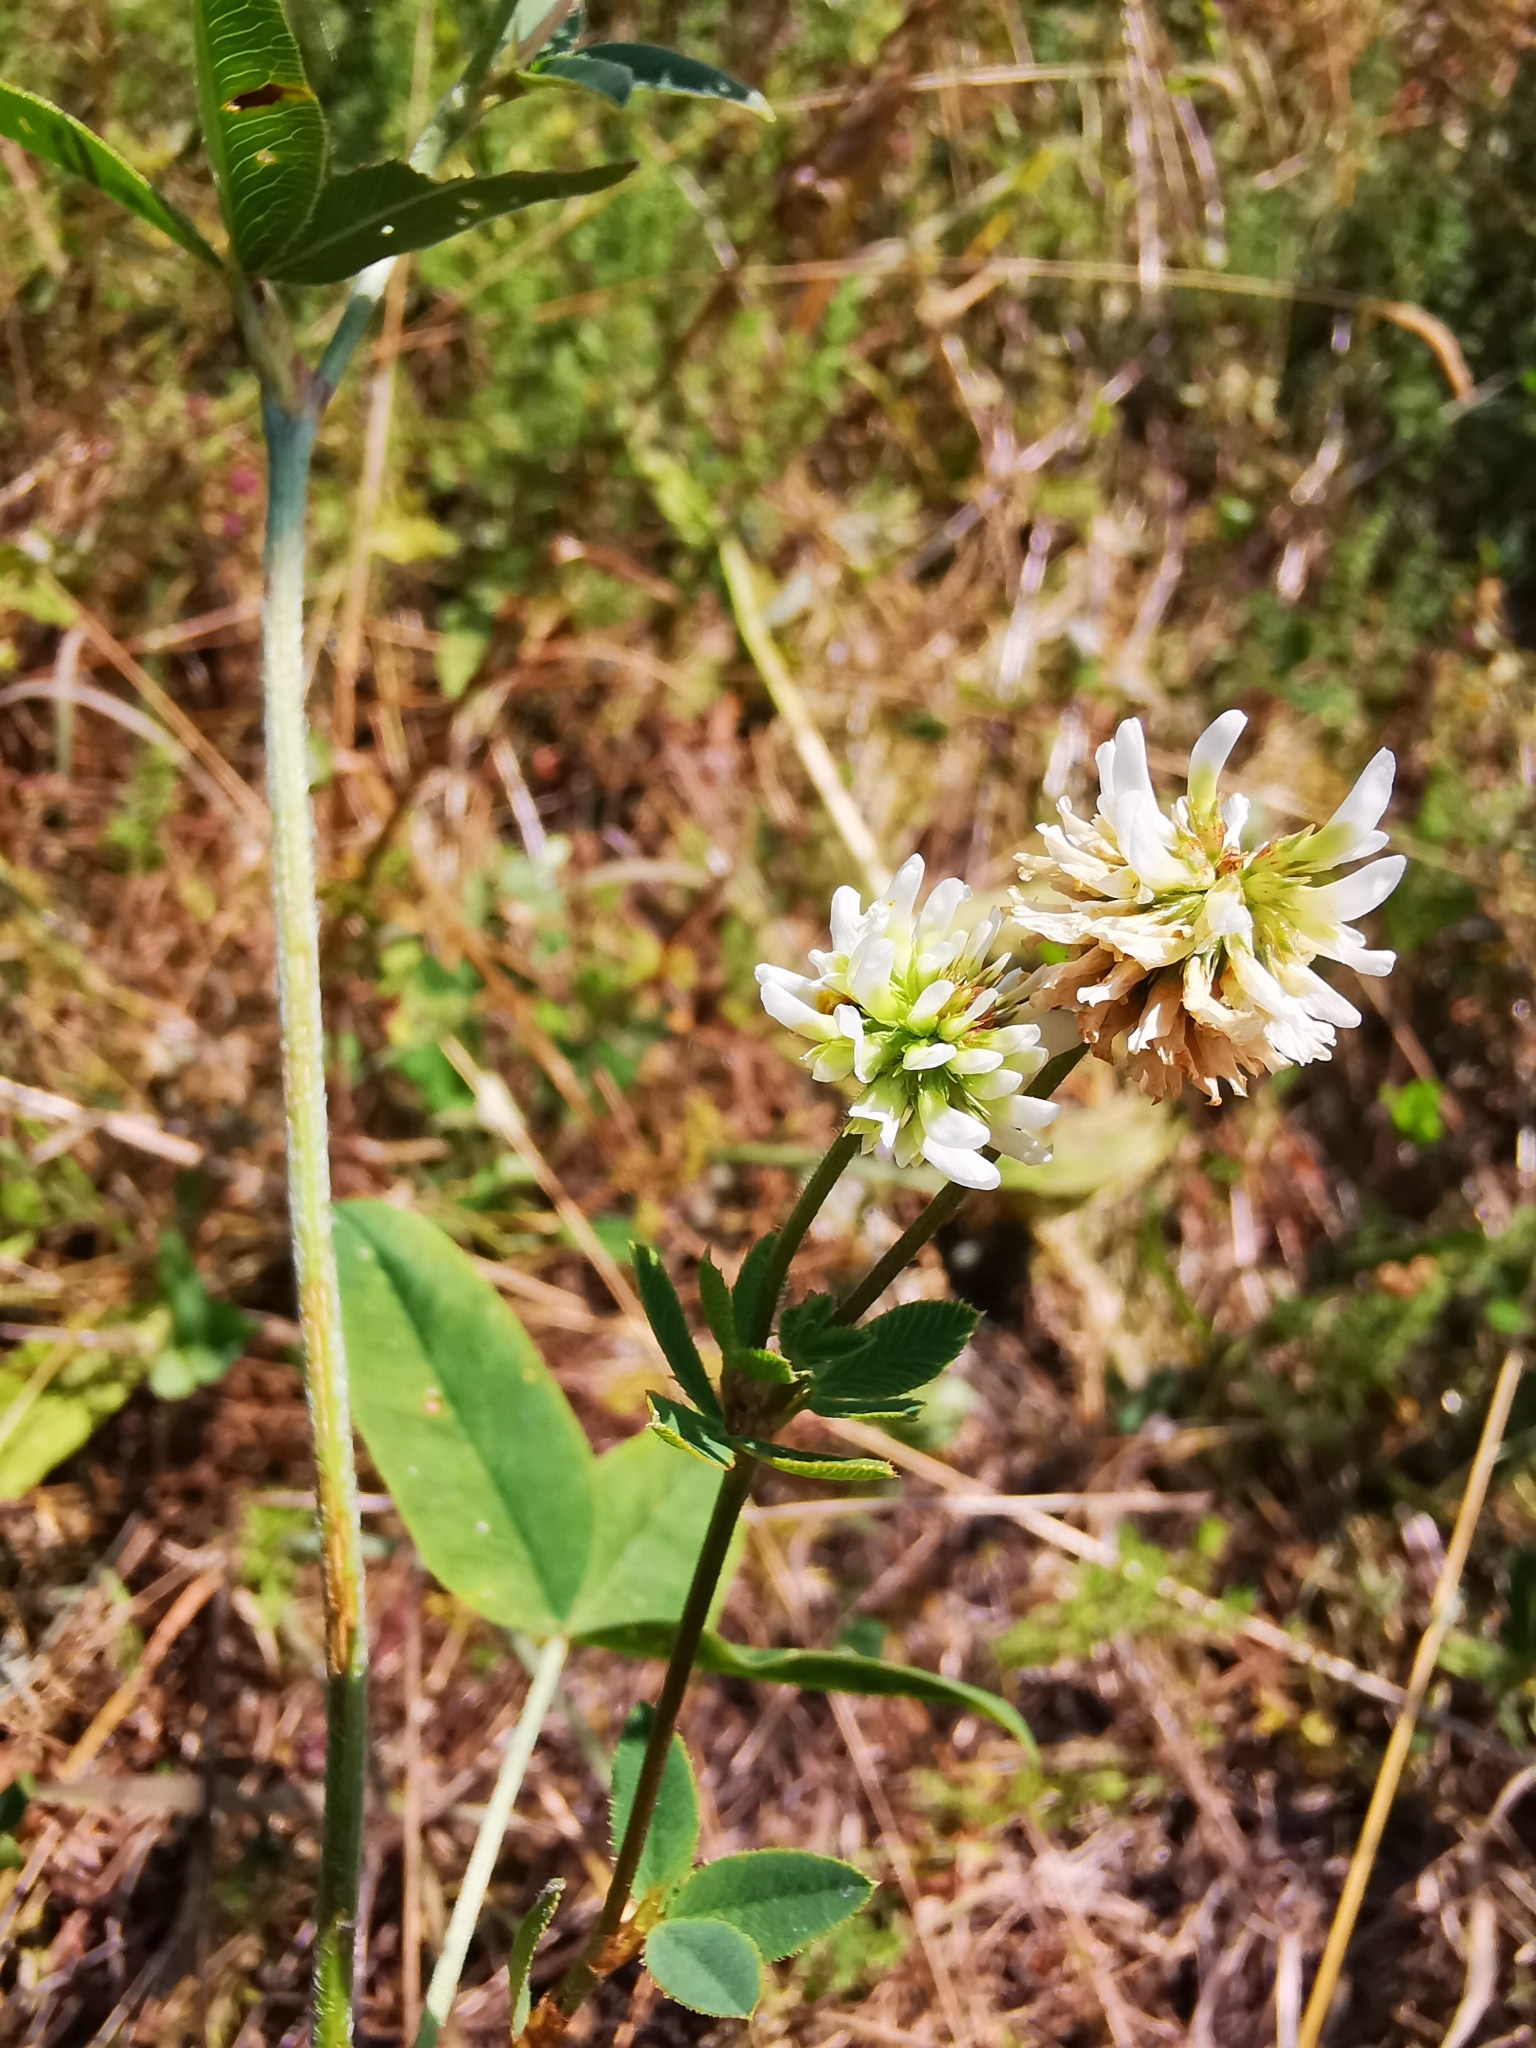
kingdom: Plantae
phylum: Tracheophyta
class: Magnoliopsida
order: Fabales
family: Fabaceae
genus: Trifolium
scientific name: Trifolium montanum
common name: Mountain clover
